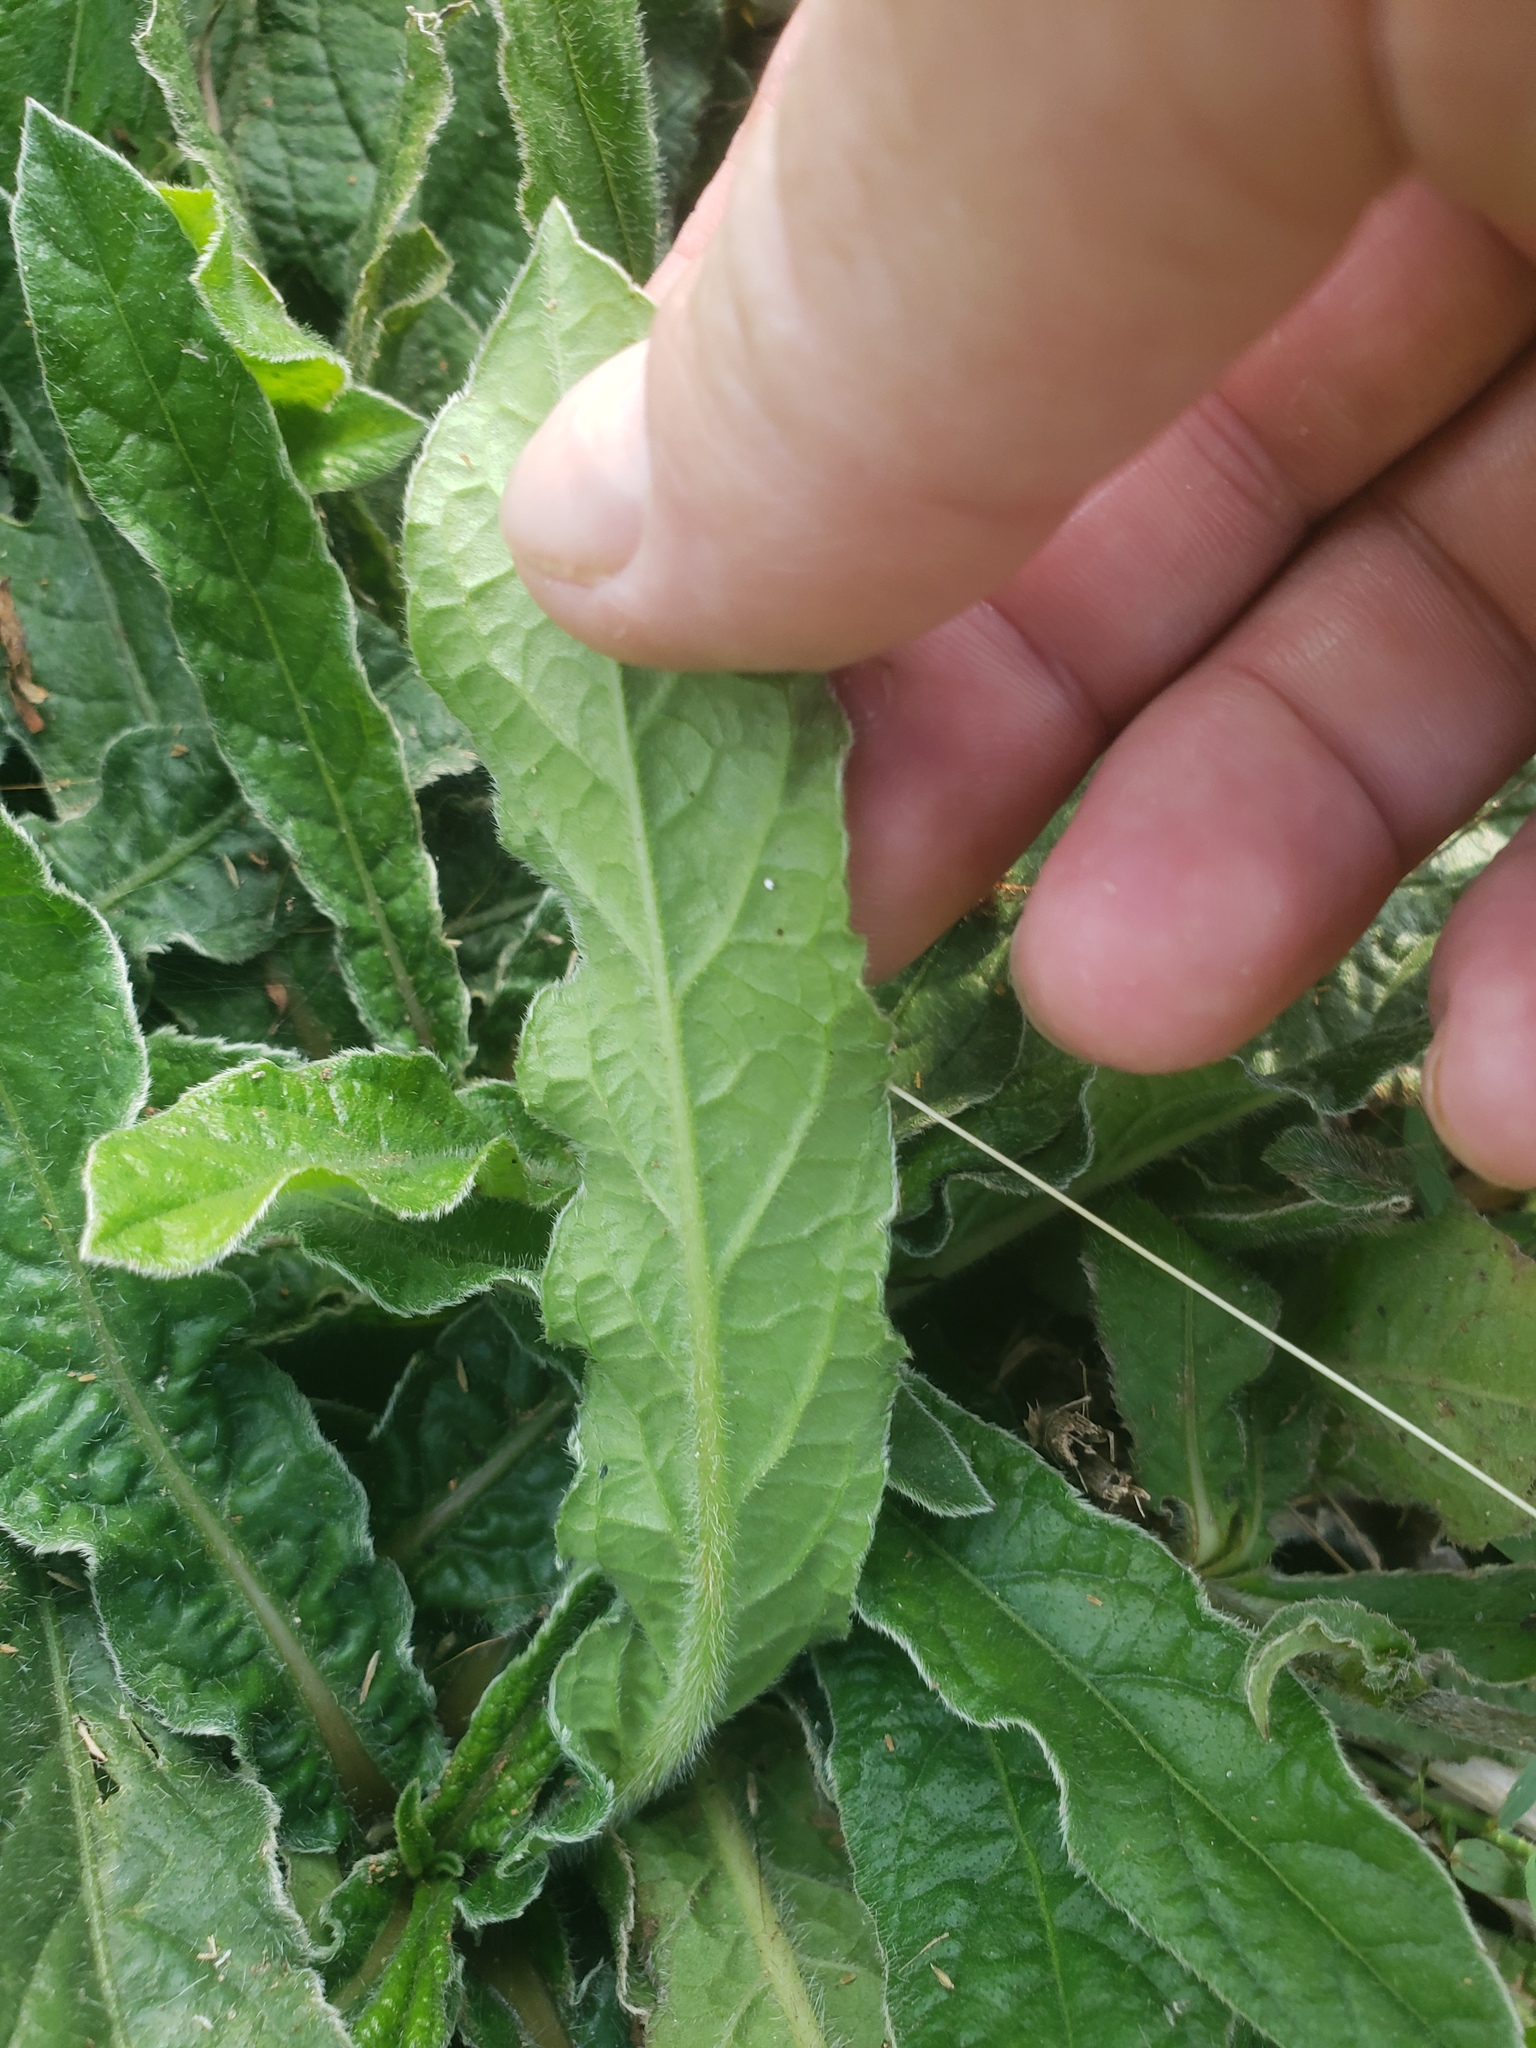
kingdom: Plantae
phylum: Tracheophyta
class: Magnoliopsida
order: Asterales
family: Asteraceae
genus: Elephantopus
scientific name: Elephantopus scaber
